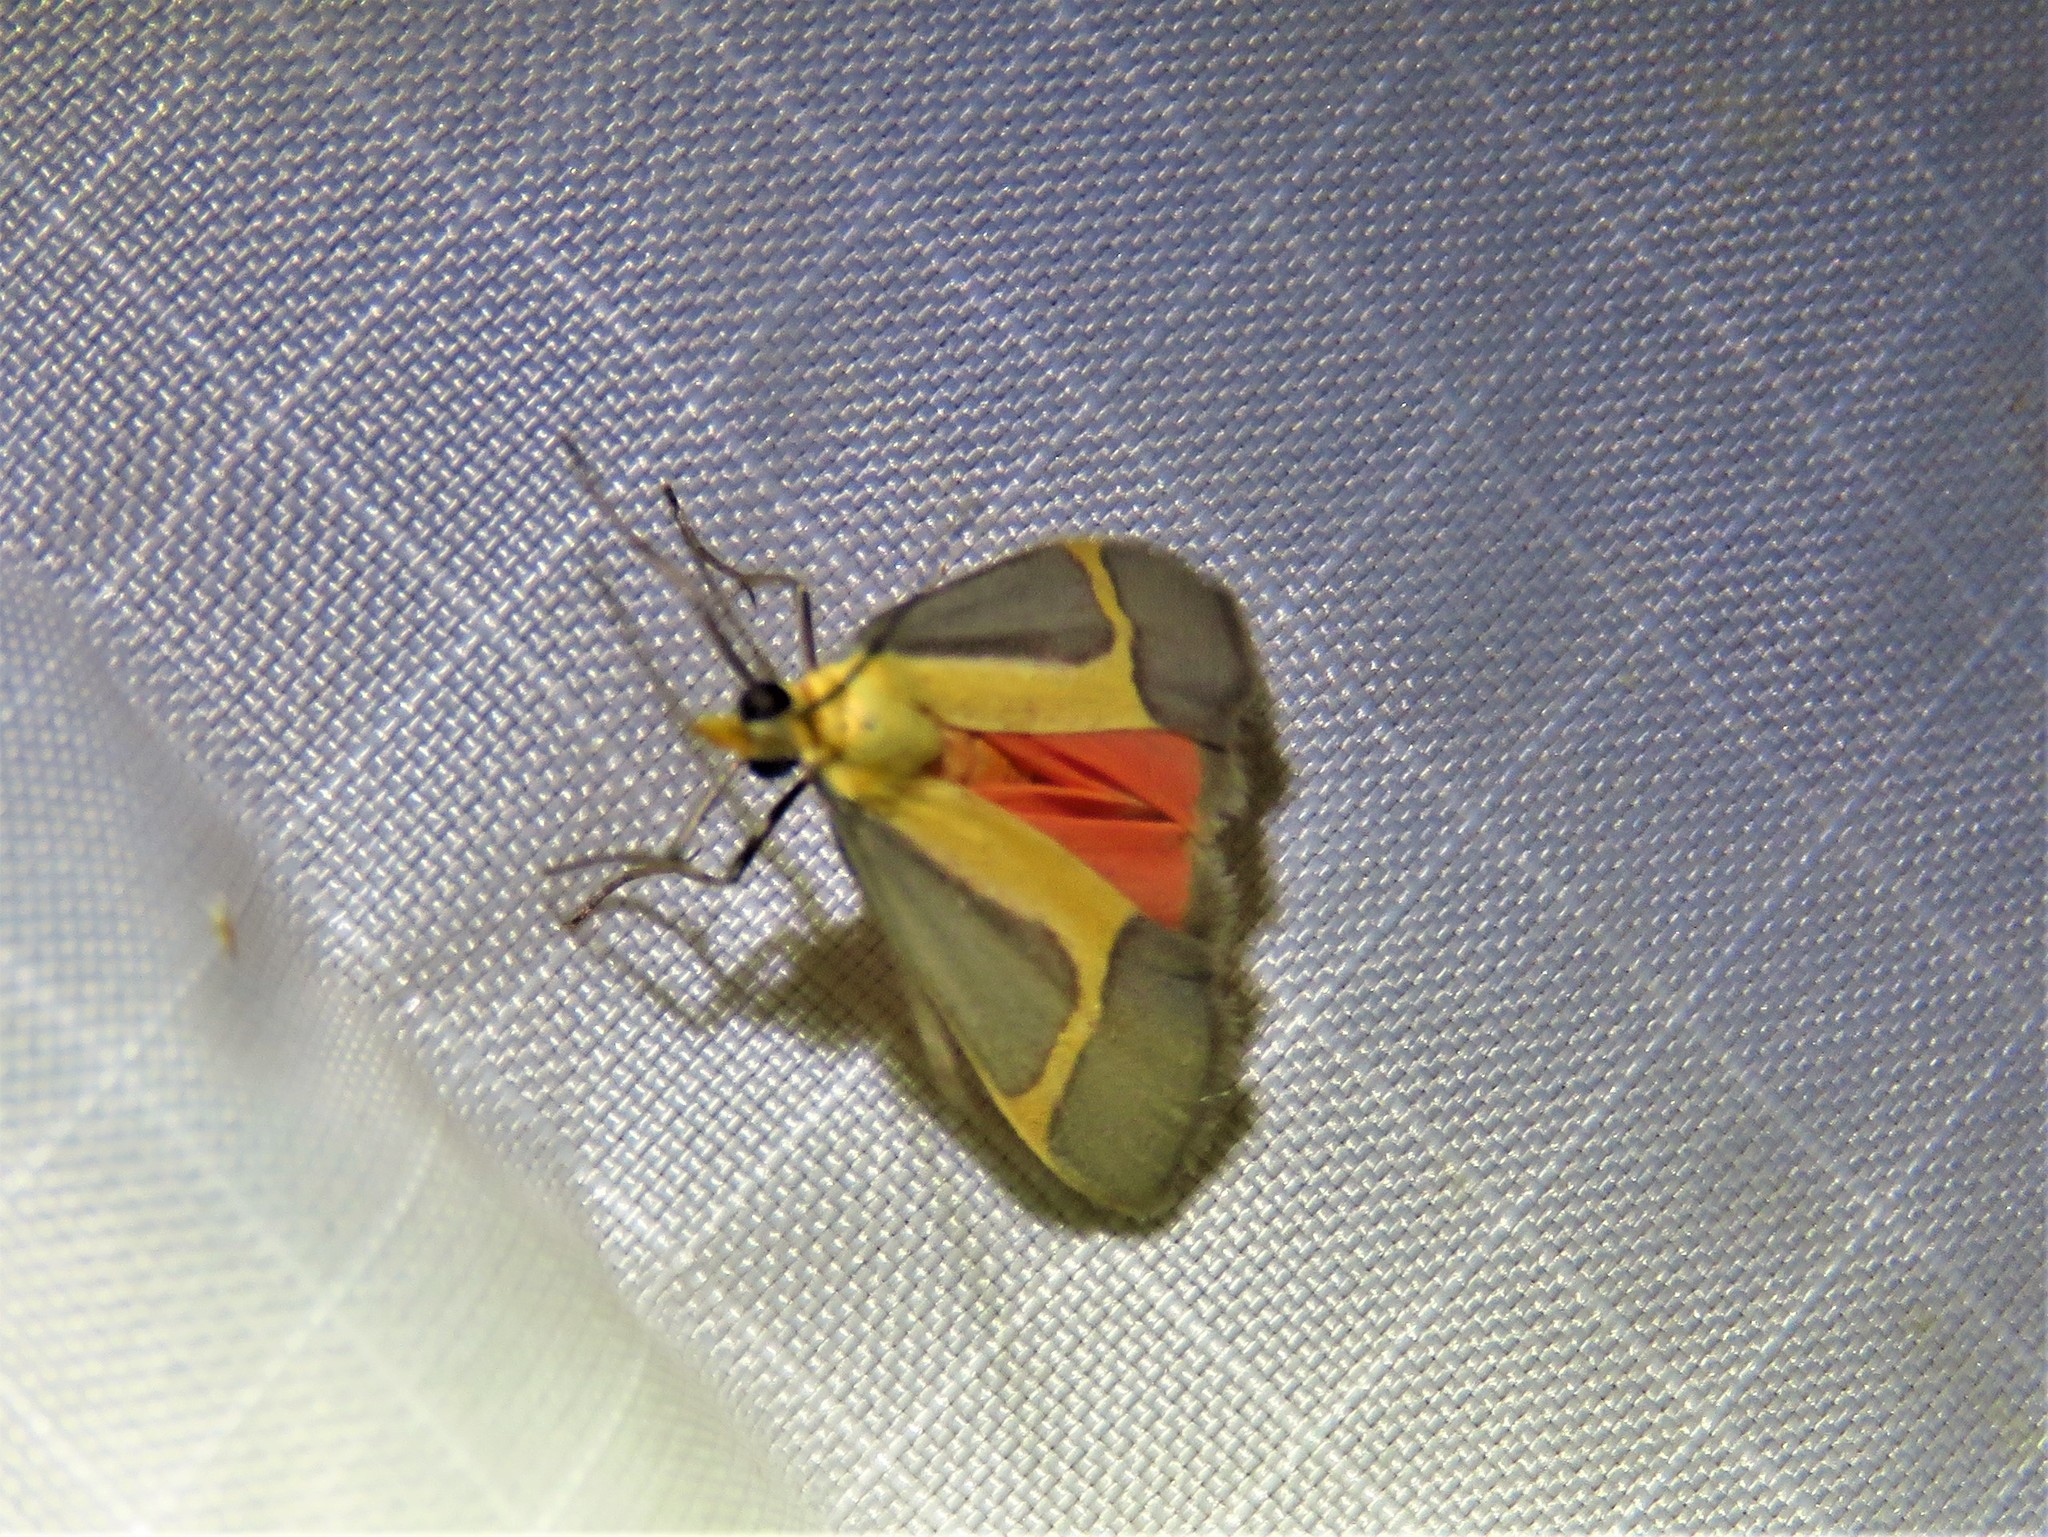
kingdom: Animalia
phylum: Arthropoda
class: Insecta
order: Lepidoptera
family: Erebidae
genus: Cisthene
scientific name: Cisthene angelus
